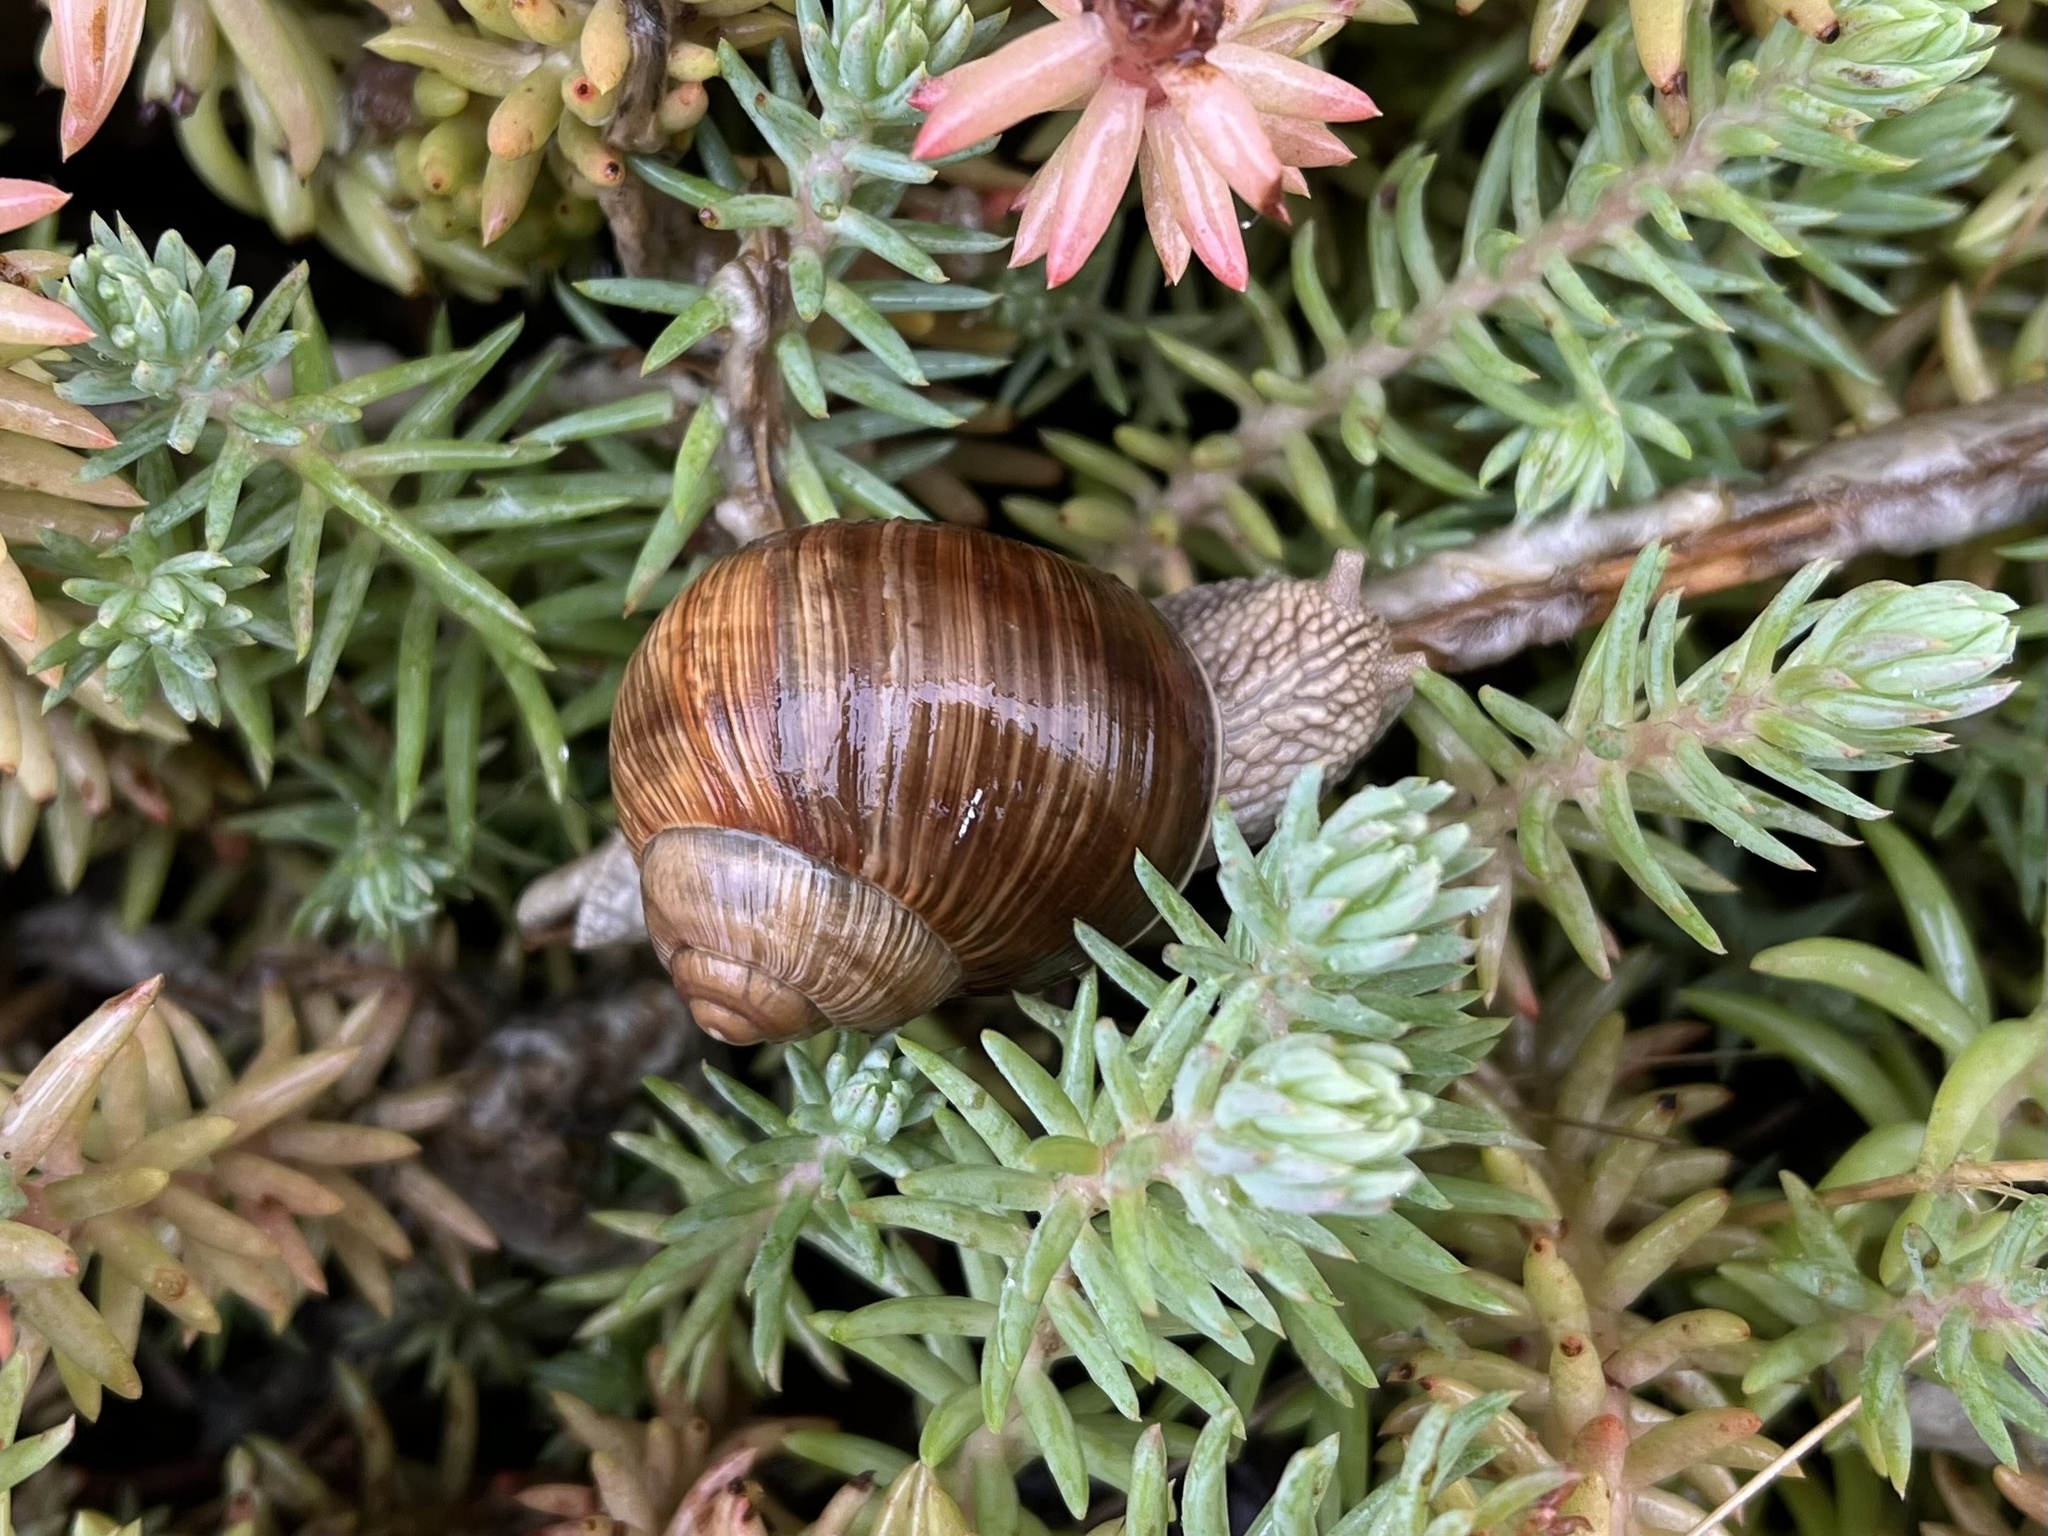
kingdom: Animalia
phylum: Mollusca
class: Gastropoda
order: Stylommatophora
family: Helicidae
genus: Helix
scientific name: Helix pomatia
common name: Roman snail
